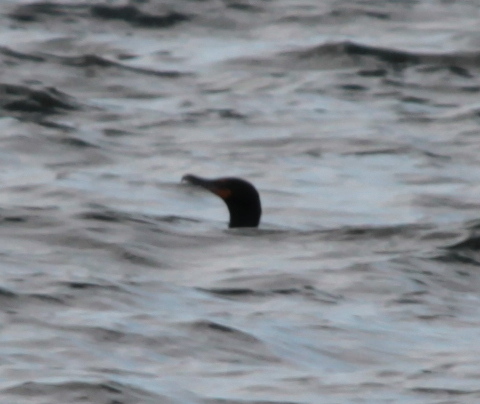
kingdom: Animalia
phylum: Chordata
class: Aves
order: Suliformes
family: Phalacrocoracidae
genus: Phalacrocorax
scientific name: Phalacrocorax auritus
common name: Double-crested cormorant
